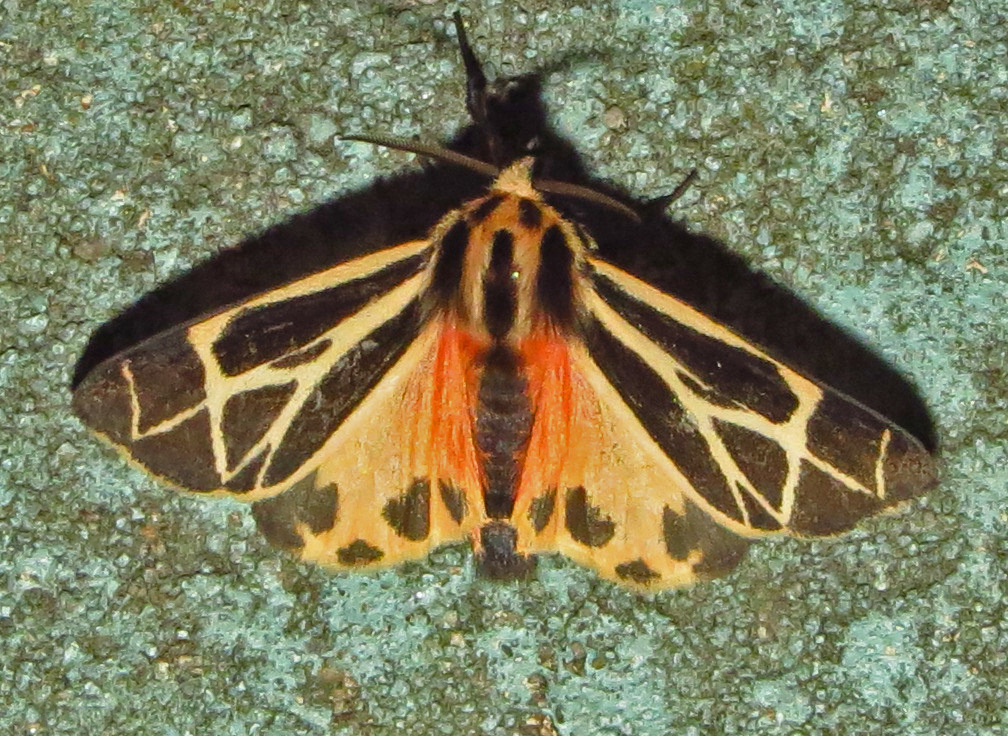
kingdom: Animalia
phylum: Arthropoda
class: Insecta
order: Lepidoptera
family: Erebidae
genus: Apantesis
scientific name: Apantesis phalerata
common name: Harnessed tiger moth
